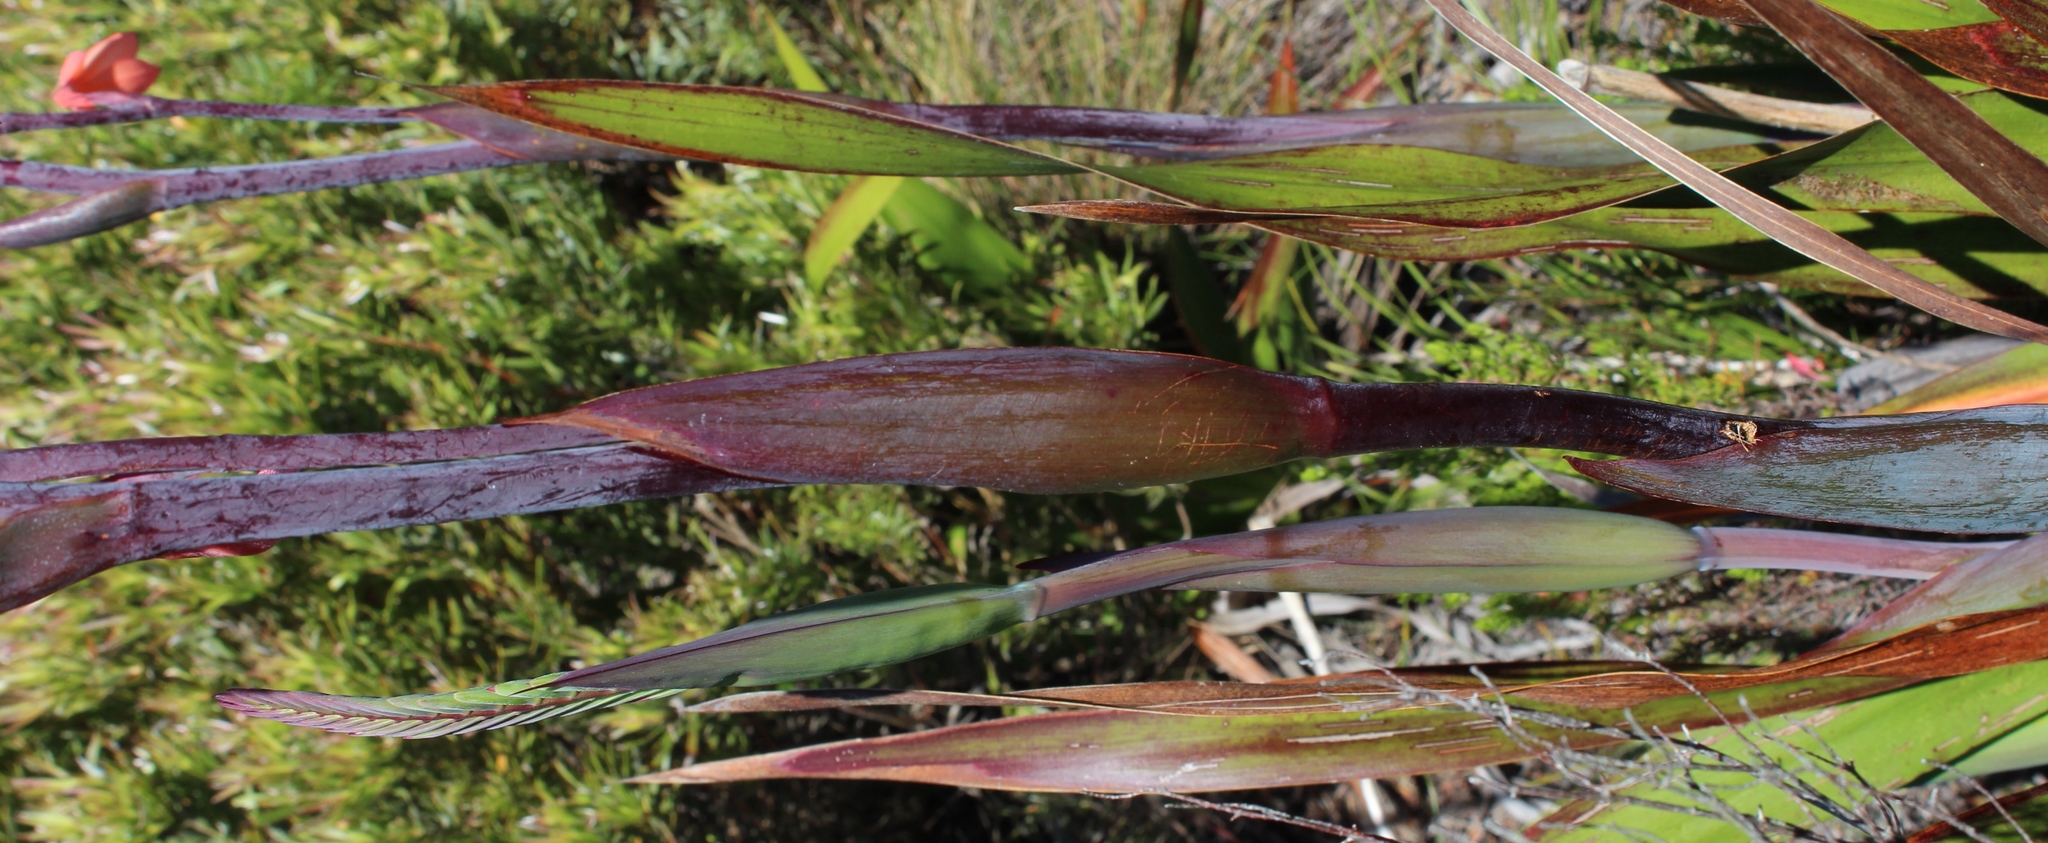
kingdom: Plantae
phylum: Tracheophyta
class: Liliopsida
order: Asparagales
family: Iridaceae
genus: Watsonia
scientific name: Watsonia tabularis
